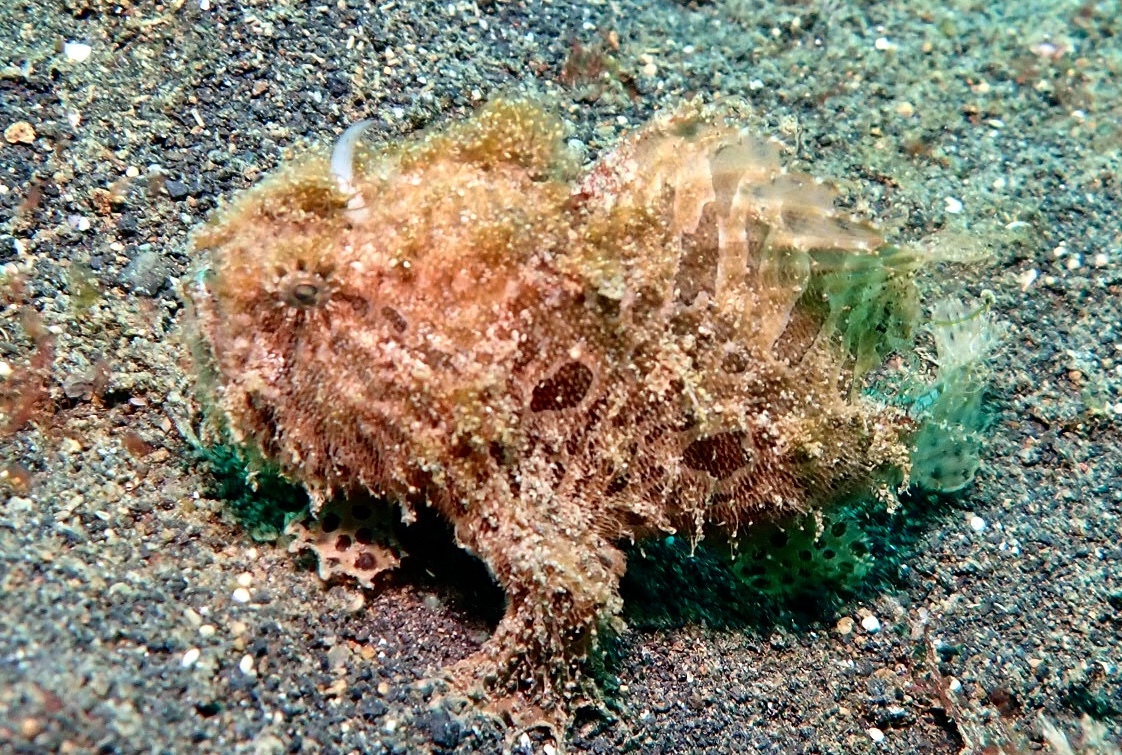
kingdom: Animalia
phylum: Chordata
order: Lophiiformes
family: Antennariidae
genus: Antennarius
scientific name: Antennarius striatus
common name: Striated frogfish
